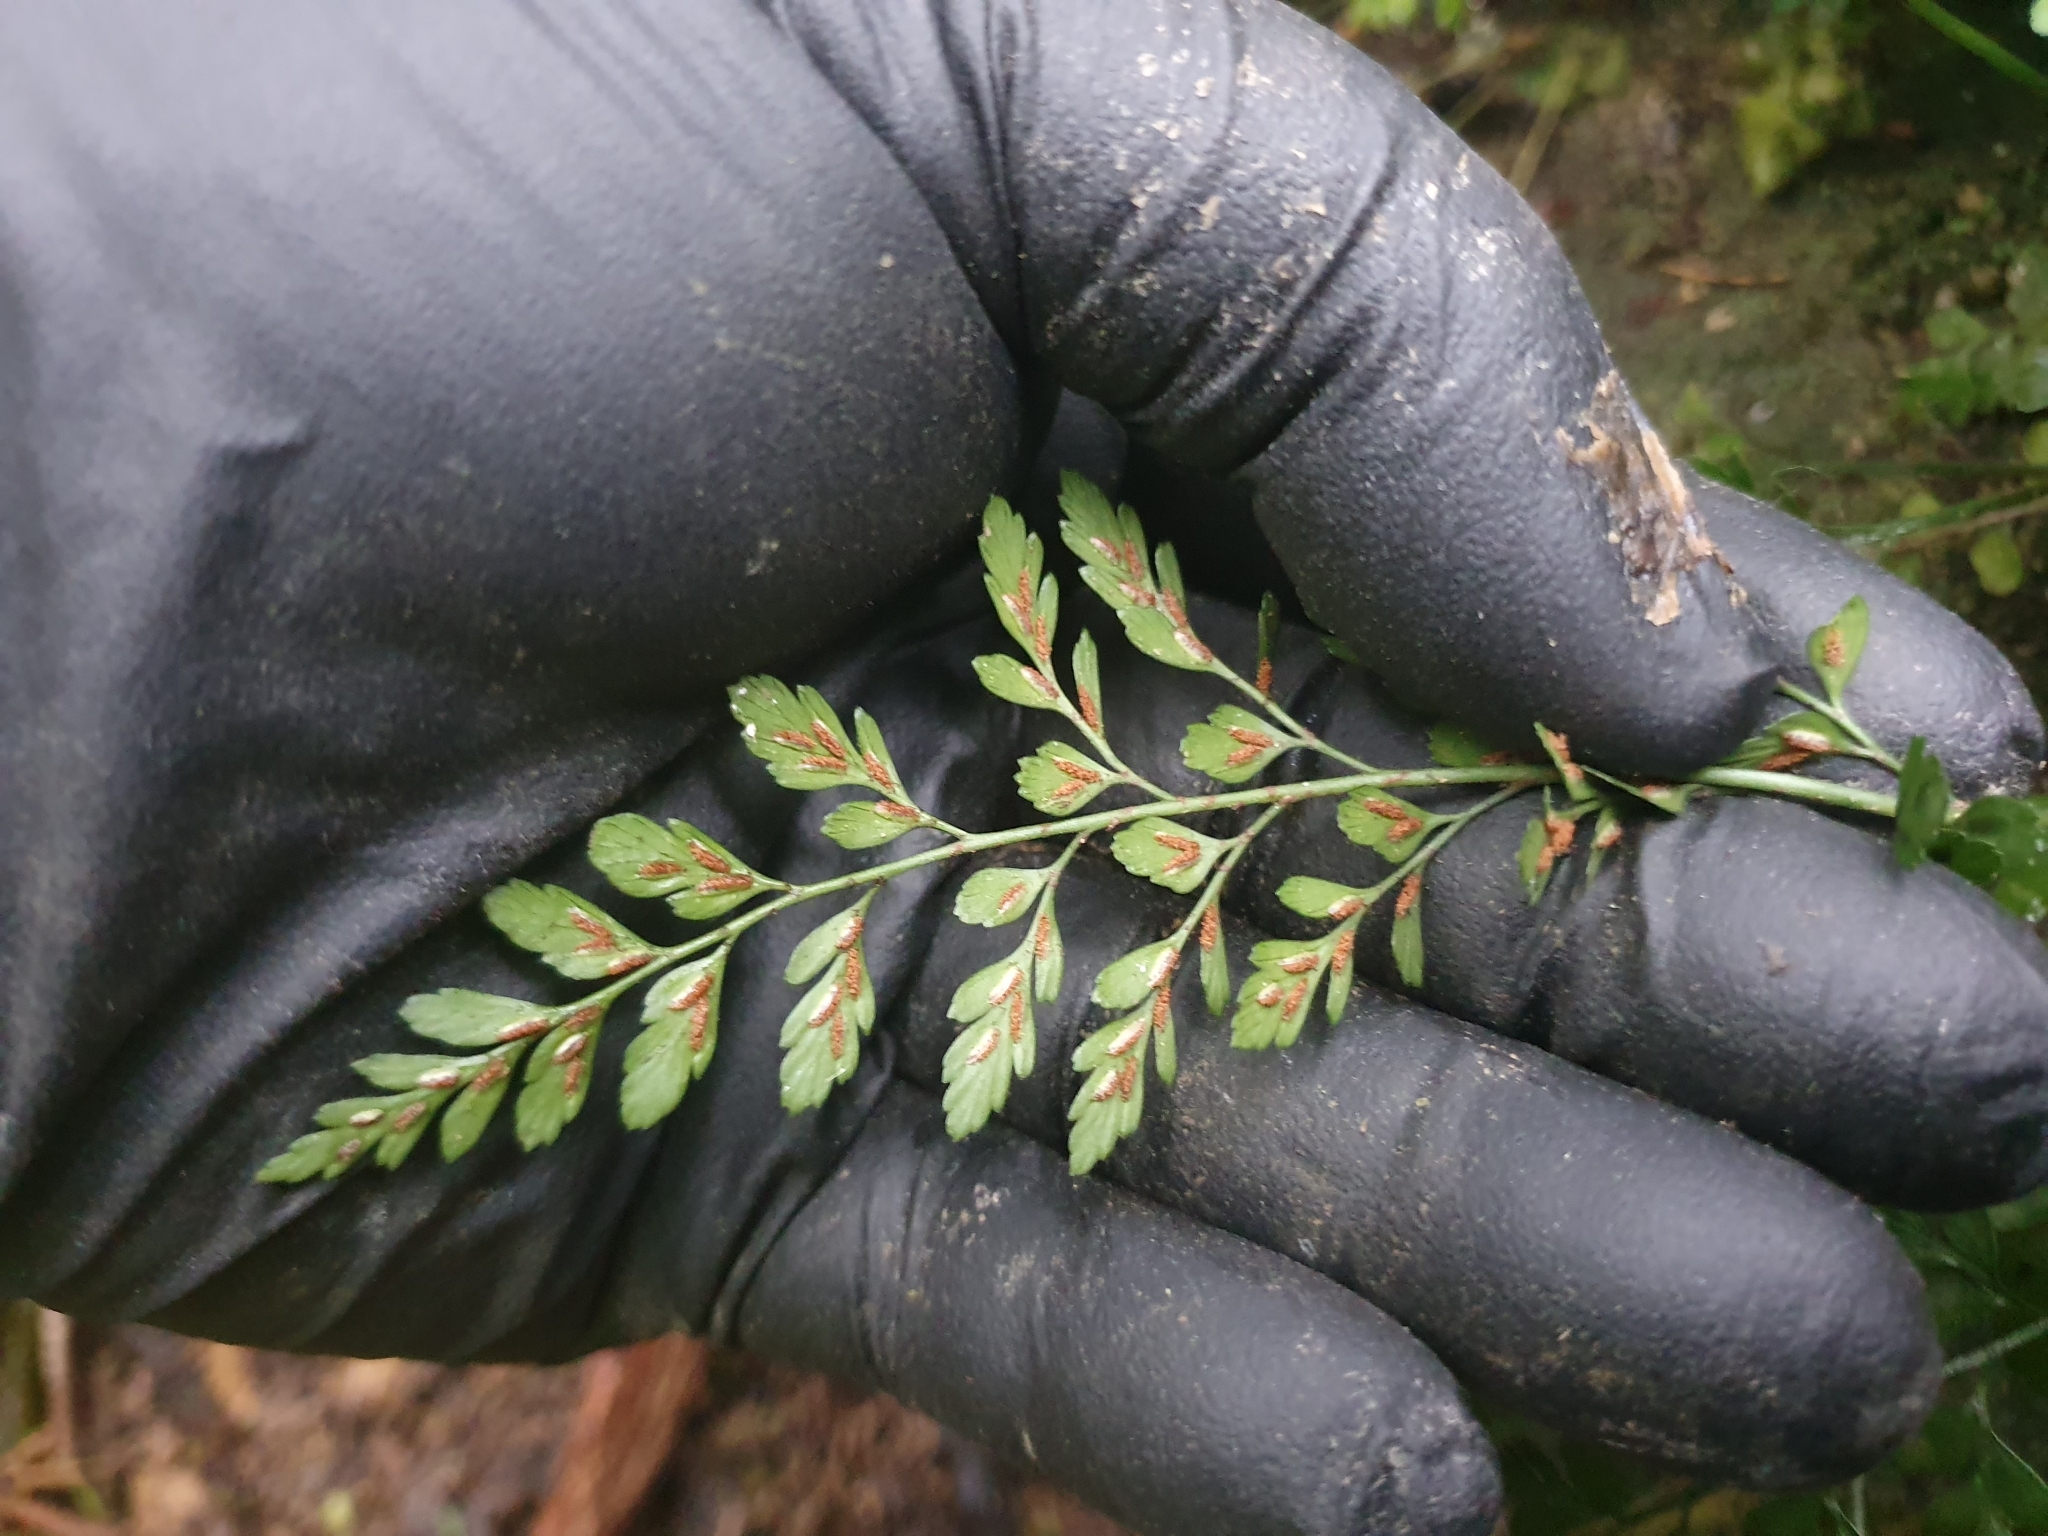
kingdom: Plantae
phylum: Tracheophyta
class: Polypodiopsida
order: Polypodiales
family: Aspleniaceae
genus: Asplenium
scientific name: Asplenium hookerianum
